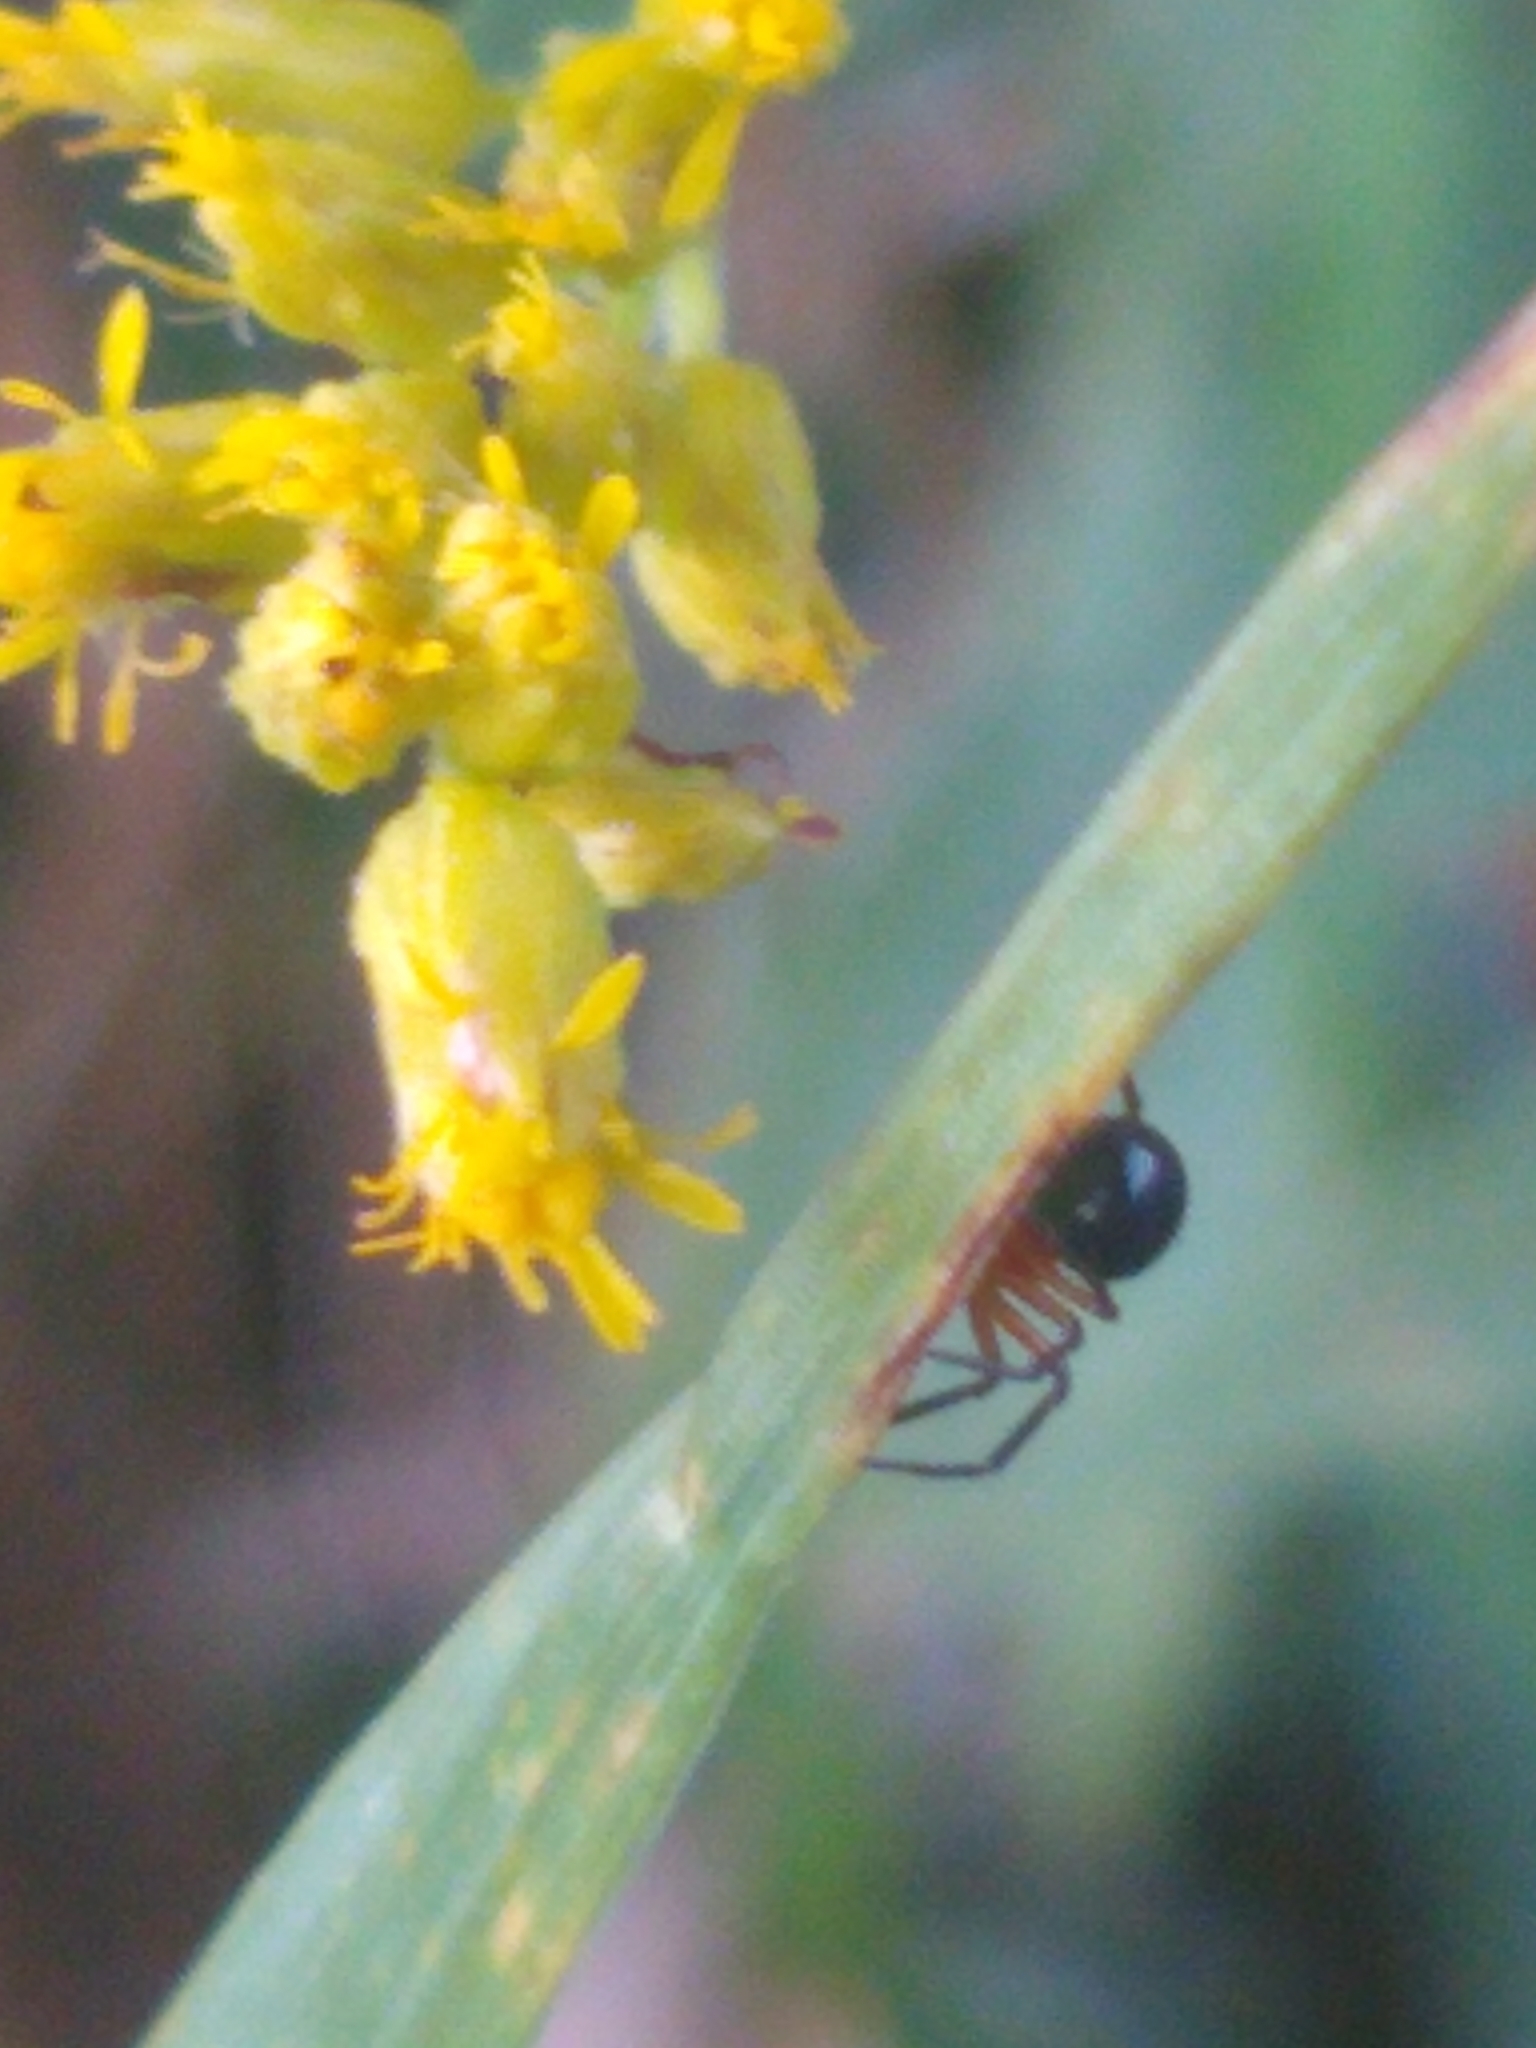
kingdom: Animalia
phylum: Arthropoda
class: Arachnida
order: Araneae
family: Linyphiidae
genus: Hypselistes
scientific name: Hypselistes florens
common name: Peatland sheetweb weaver
